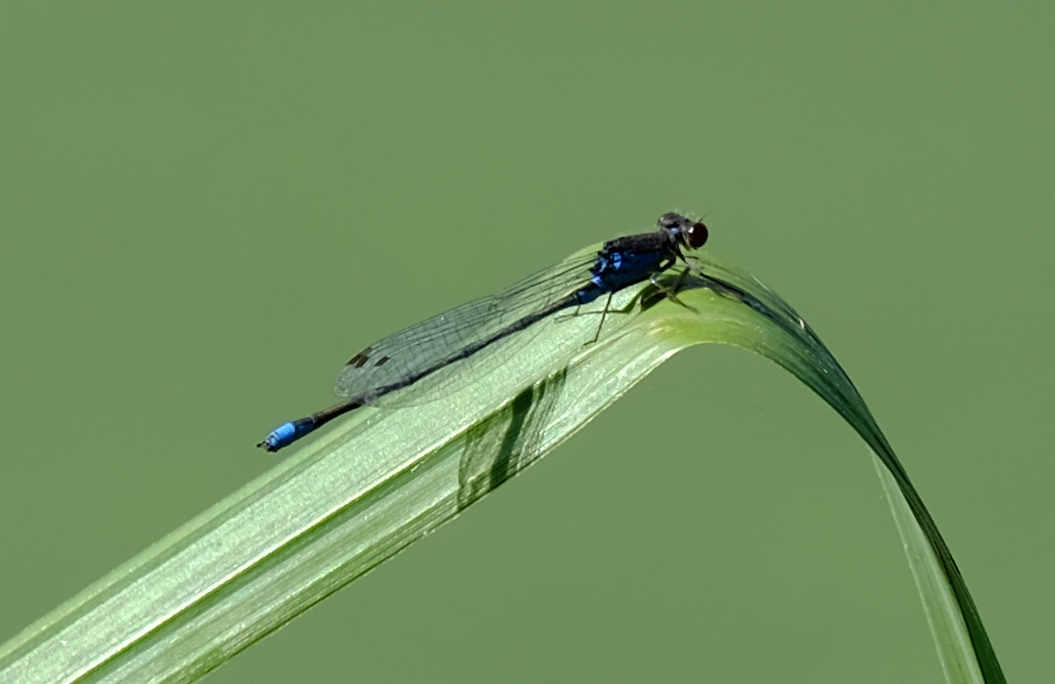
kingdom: Animalia
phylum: Arthropoda
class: Insecta
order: Odonata
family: Coenagrionidae
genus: Erythromma
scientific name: Erythromma viridulum
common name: Small red-eyed damselfly
